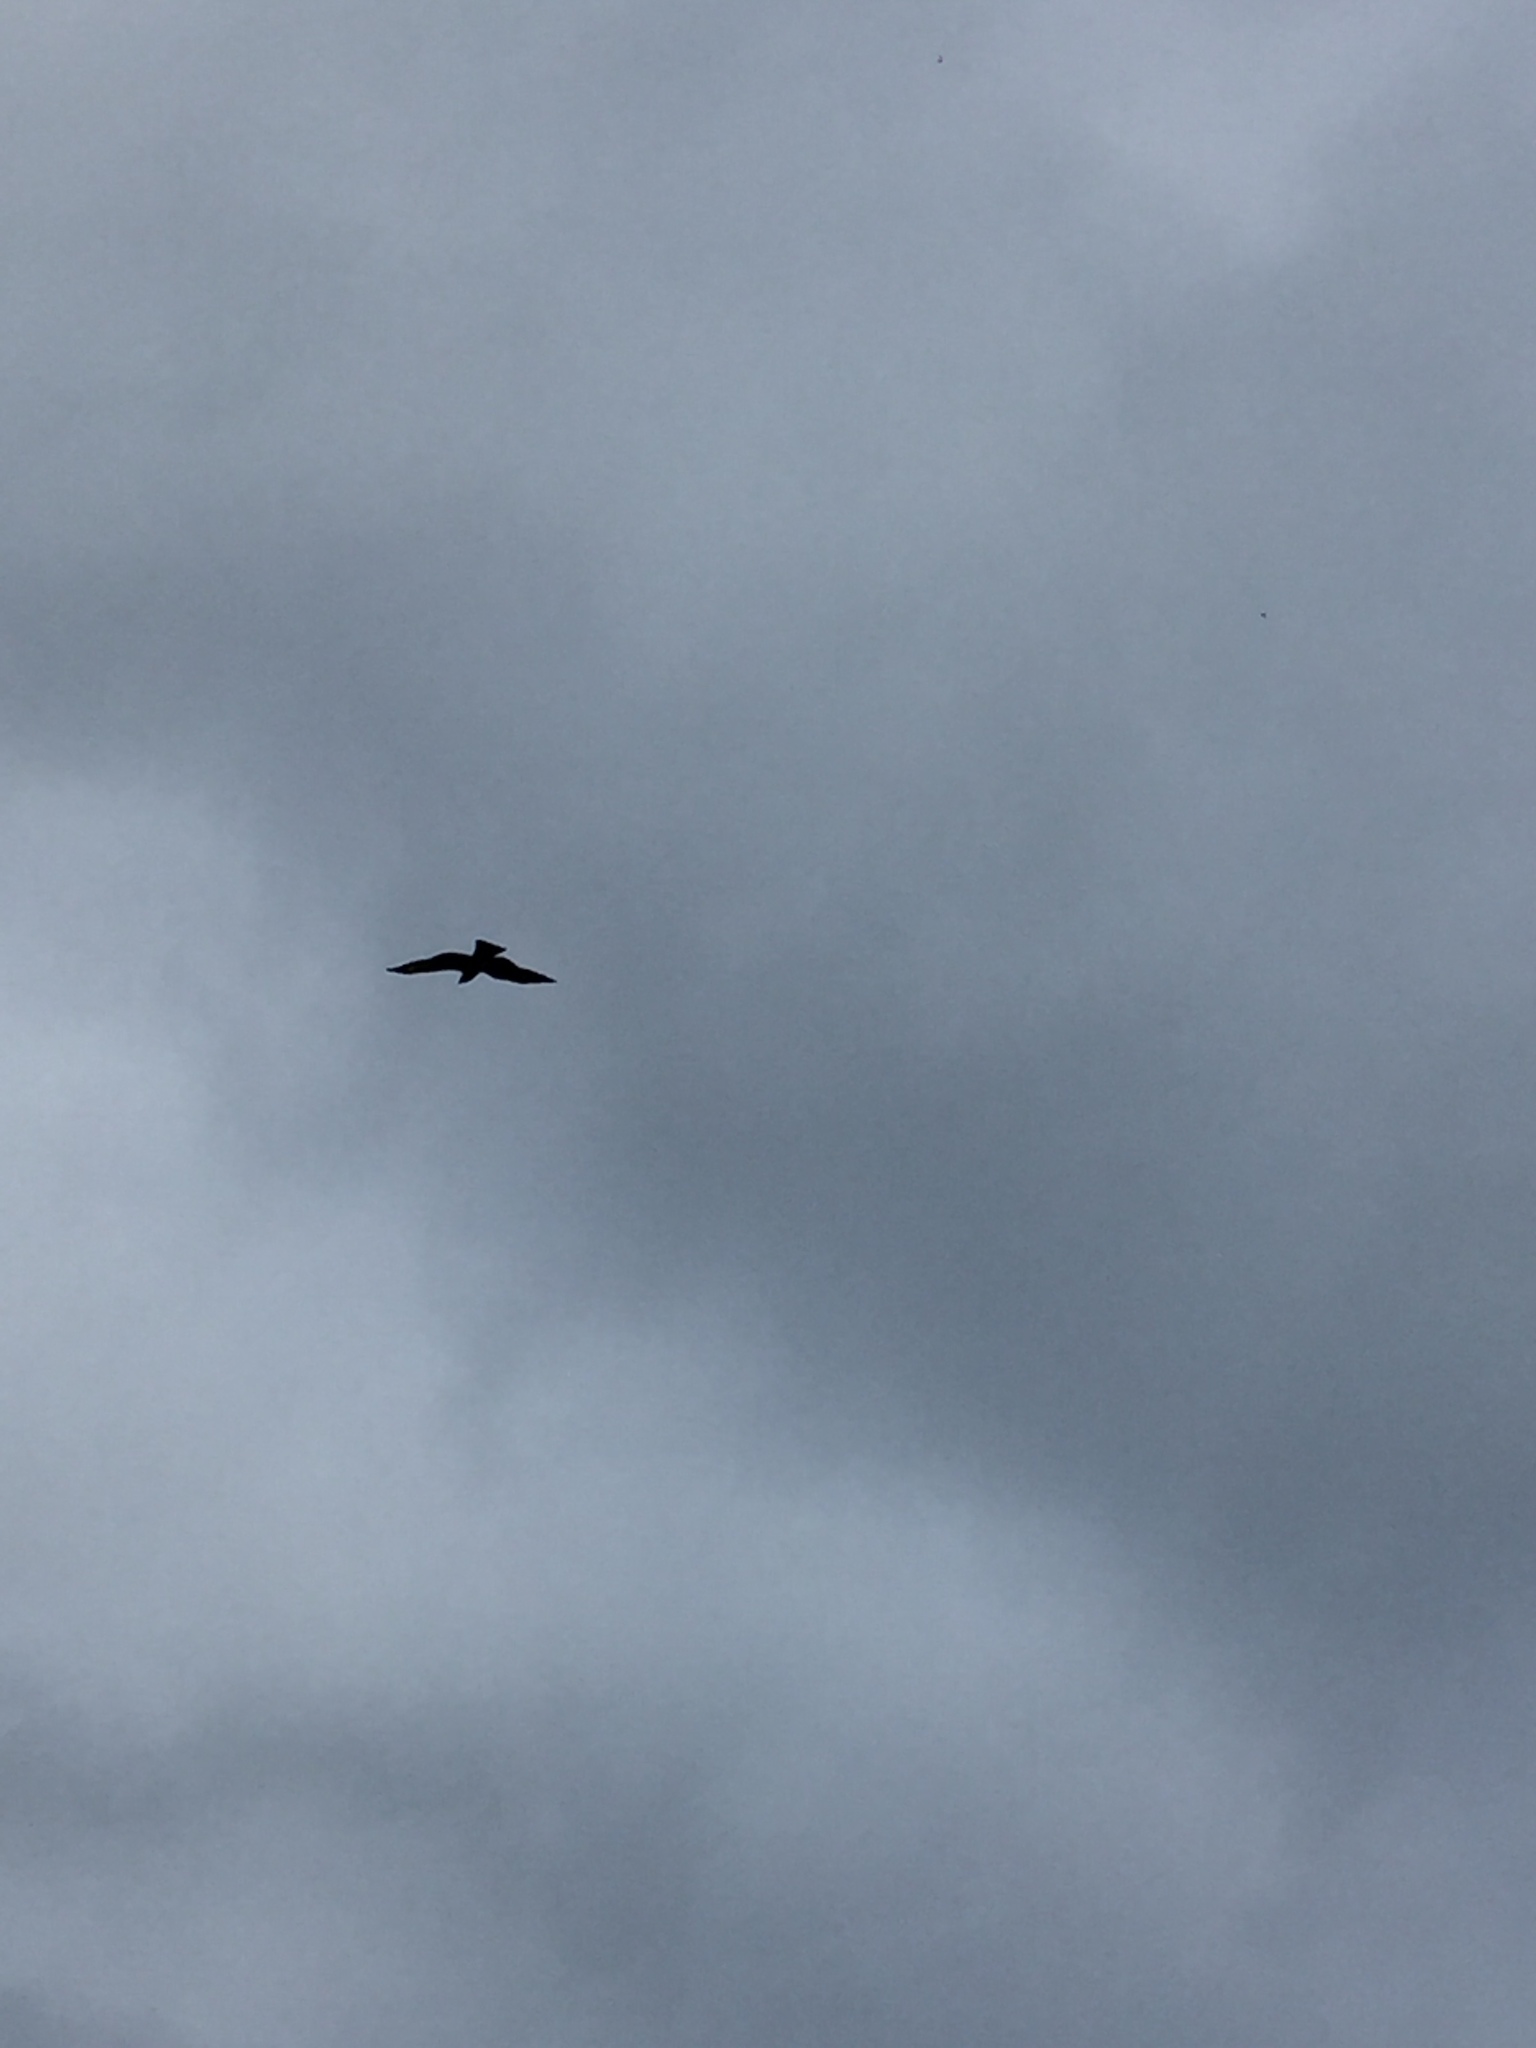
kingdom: Animalia
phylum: Chordata
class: Aves
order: Accipitriformes
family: Accipitridae
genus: Milvus
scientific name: Milvus migrans
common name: Black kite
